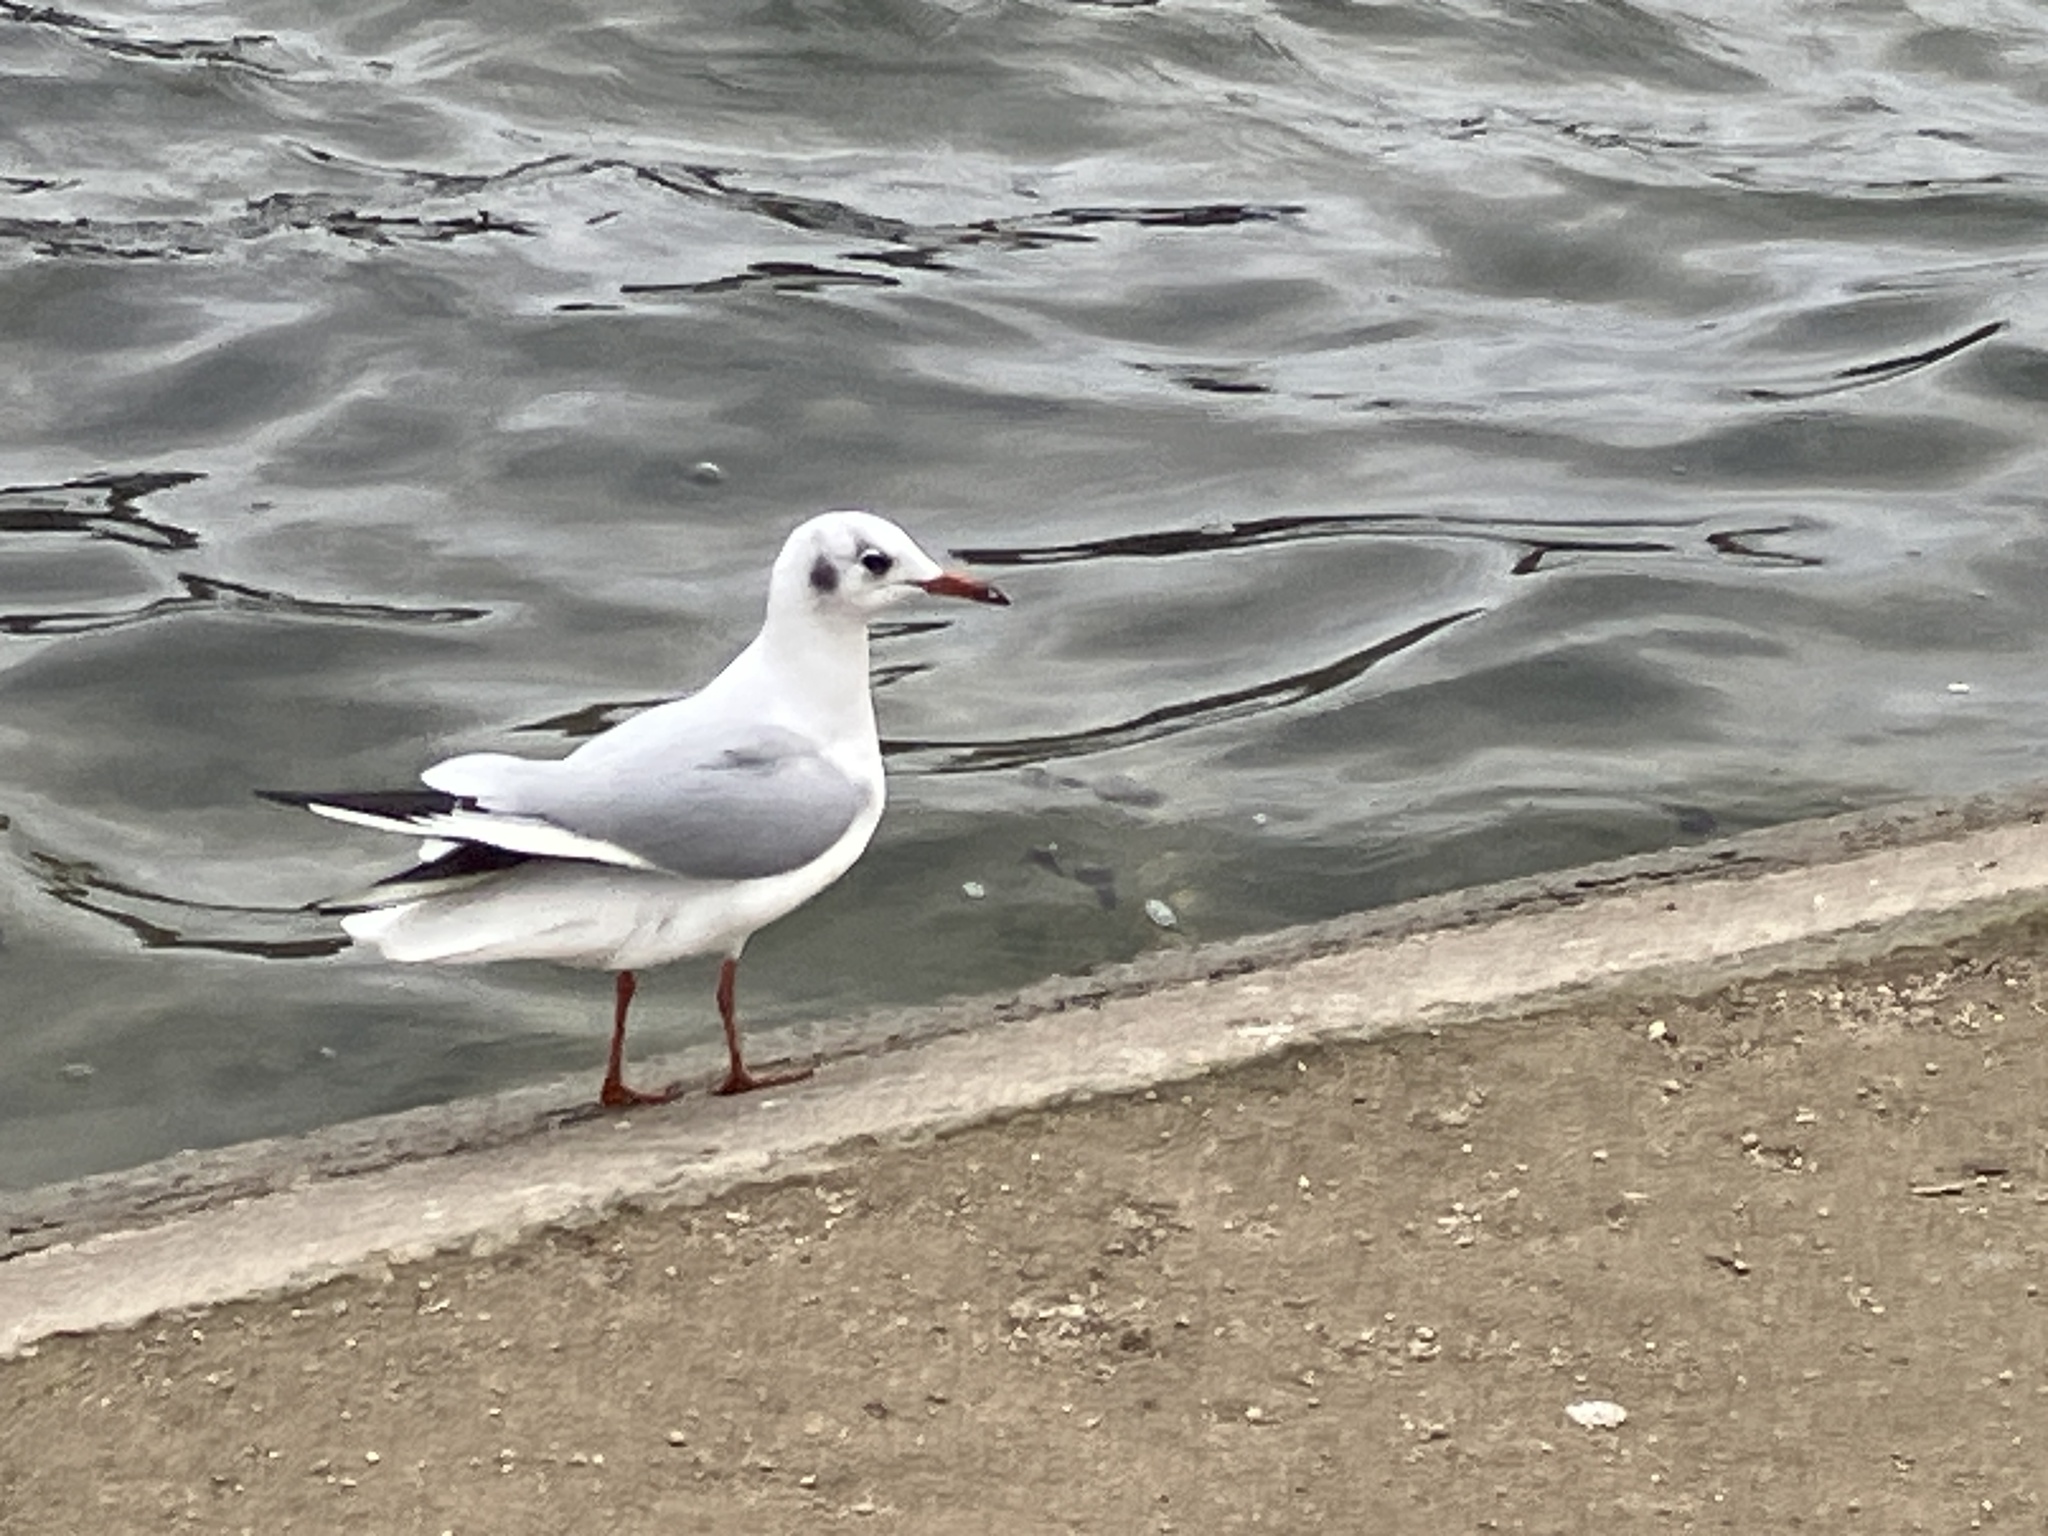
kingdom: Animalia
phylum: Chordata
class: Aves
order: Charadriiformes
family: Laridae
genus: Chroicocephalus
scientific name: Chroicocephalus ridibundus
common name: Black-headed gull
